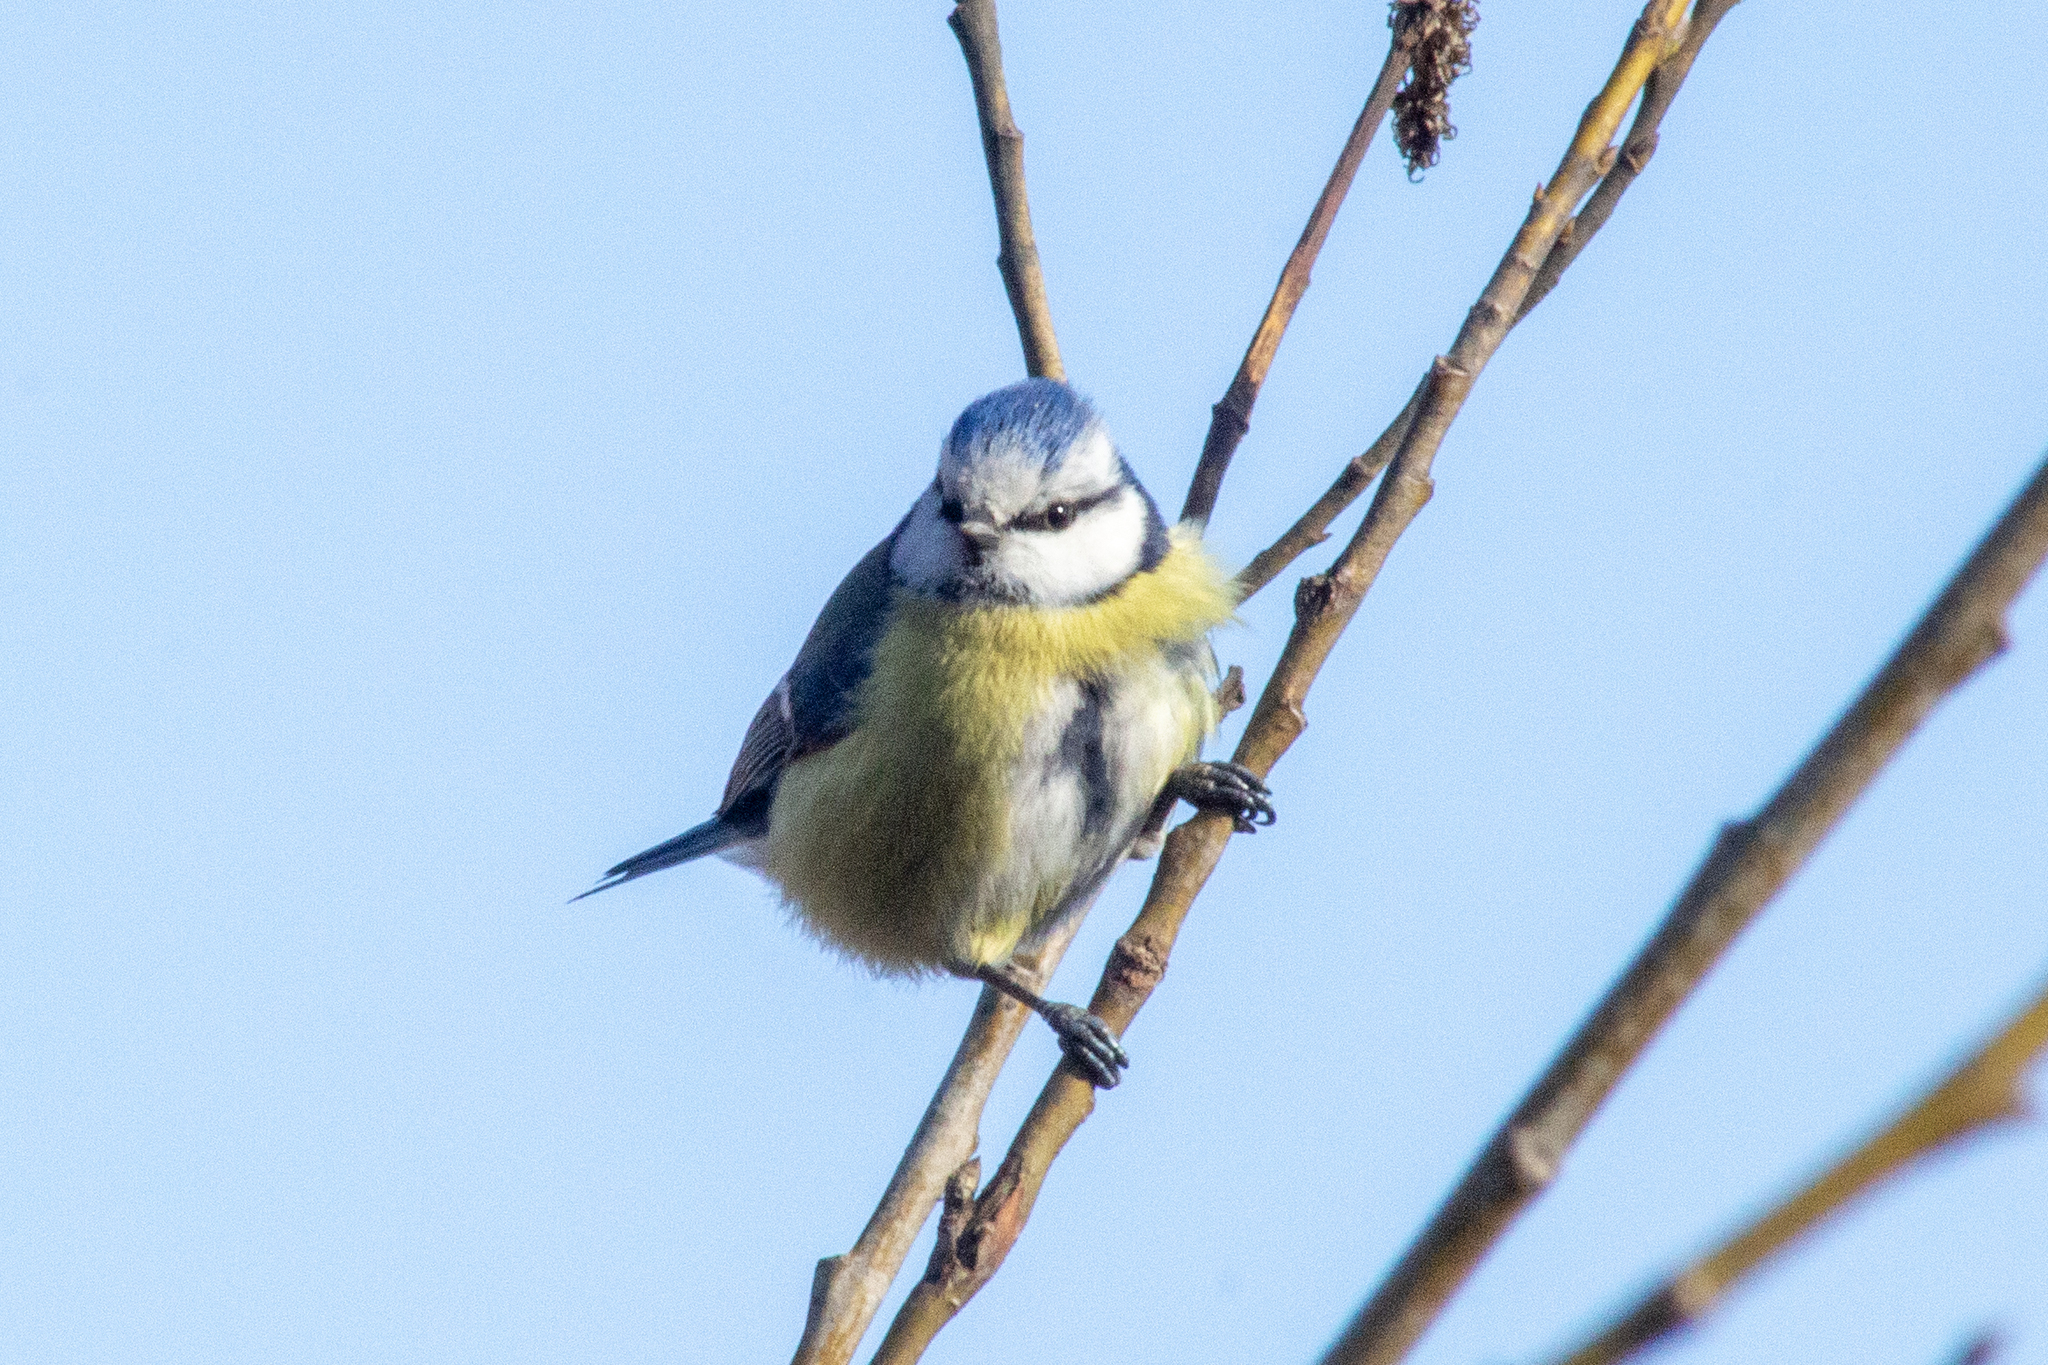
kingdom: Animalia
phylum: Chordata
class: Aves
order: Passeriformes
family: Paridae
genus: Cyanistes
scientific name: Cyanistes caeruleus
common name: Eurasian blue tit
